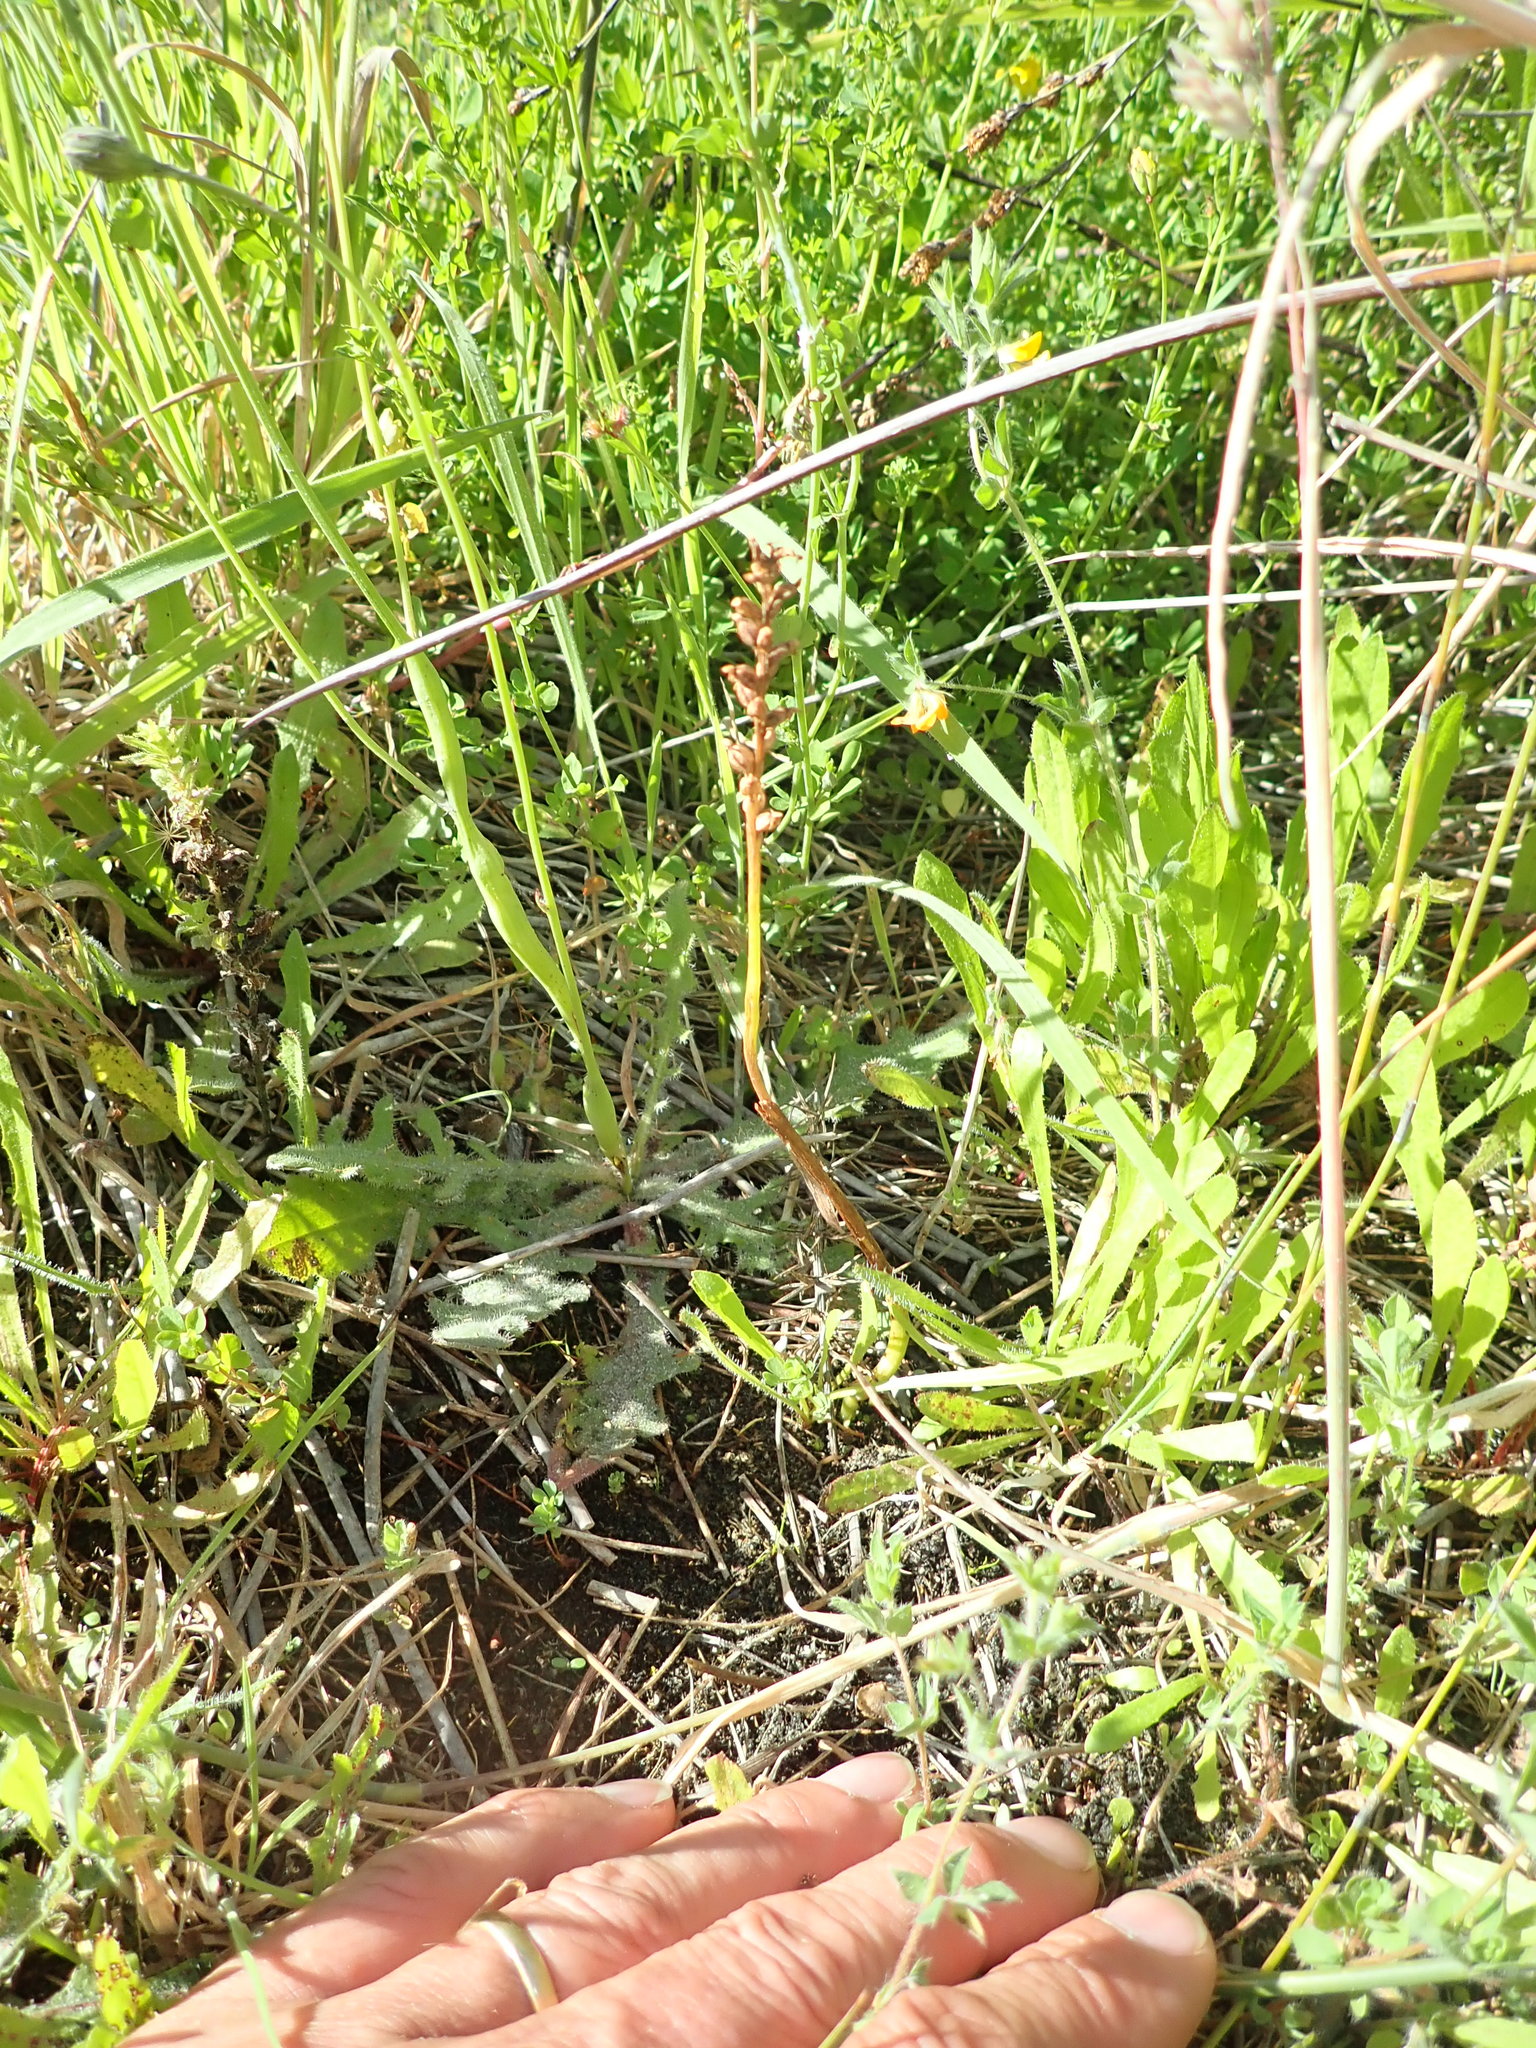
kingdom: Plantae
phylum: Tracheophyta
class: Liliopsida
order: Asparagales
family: Orchidaceae
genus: Microtis
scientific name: Microtis unifolia
